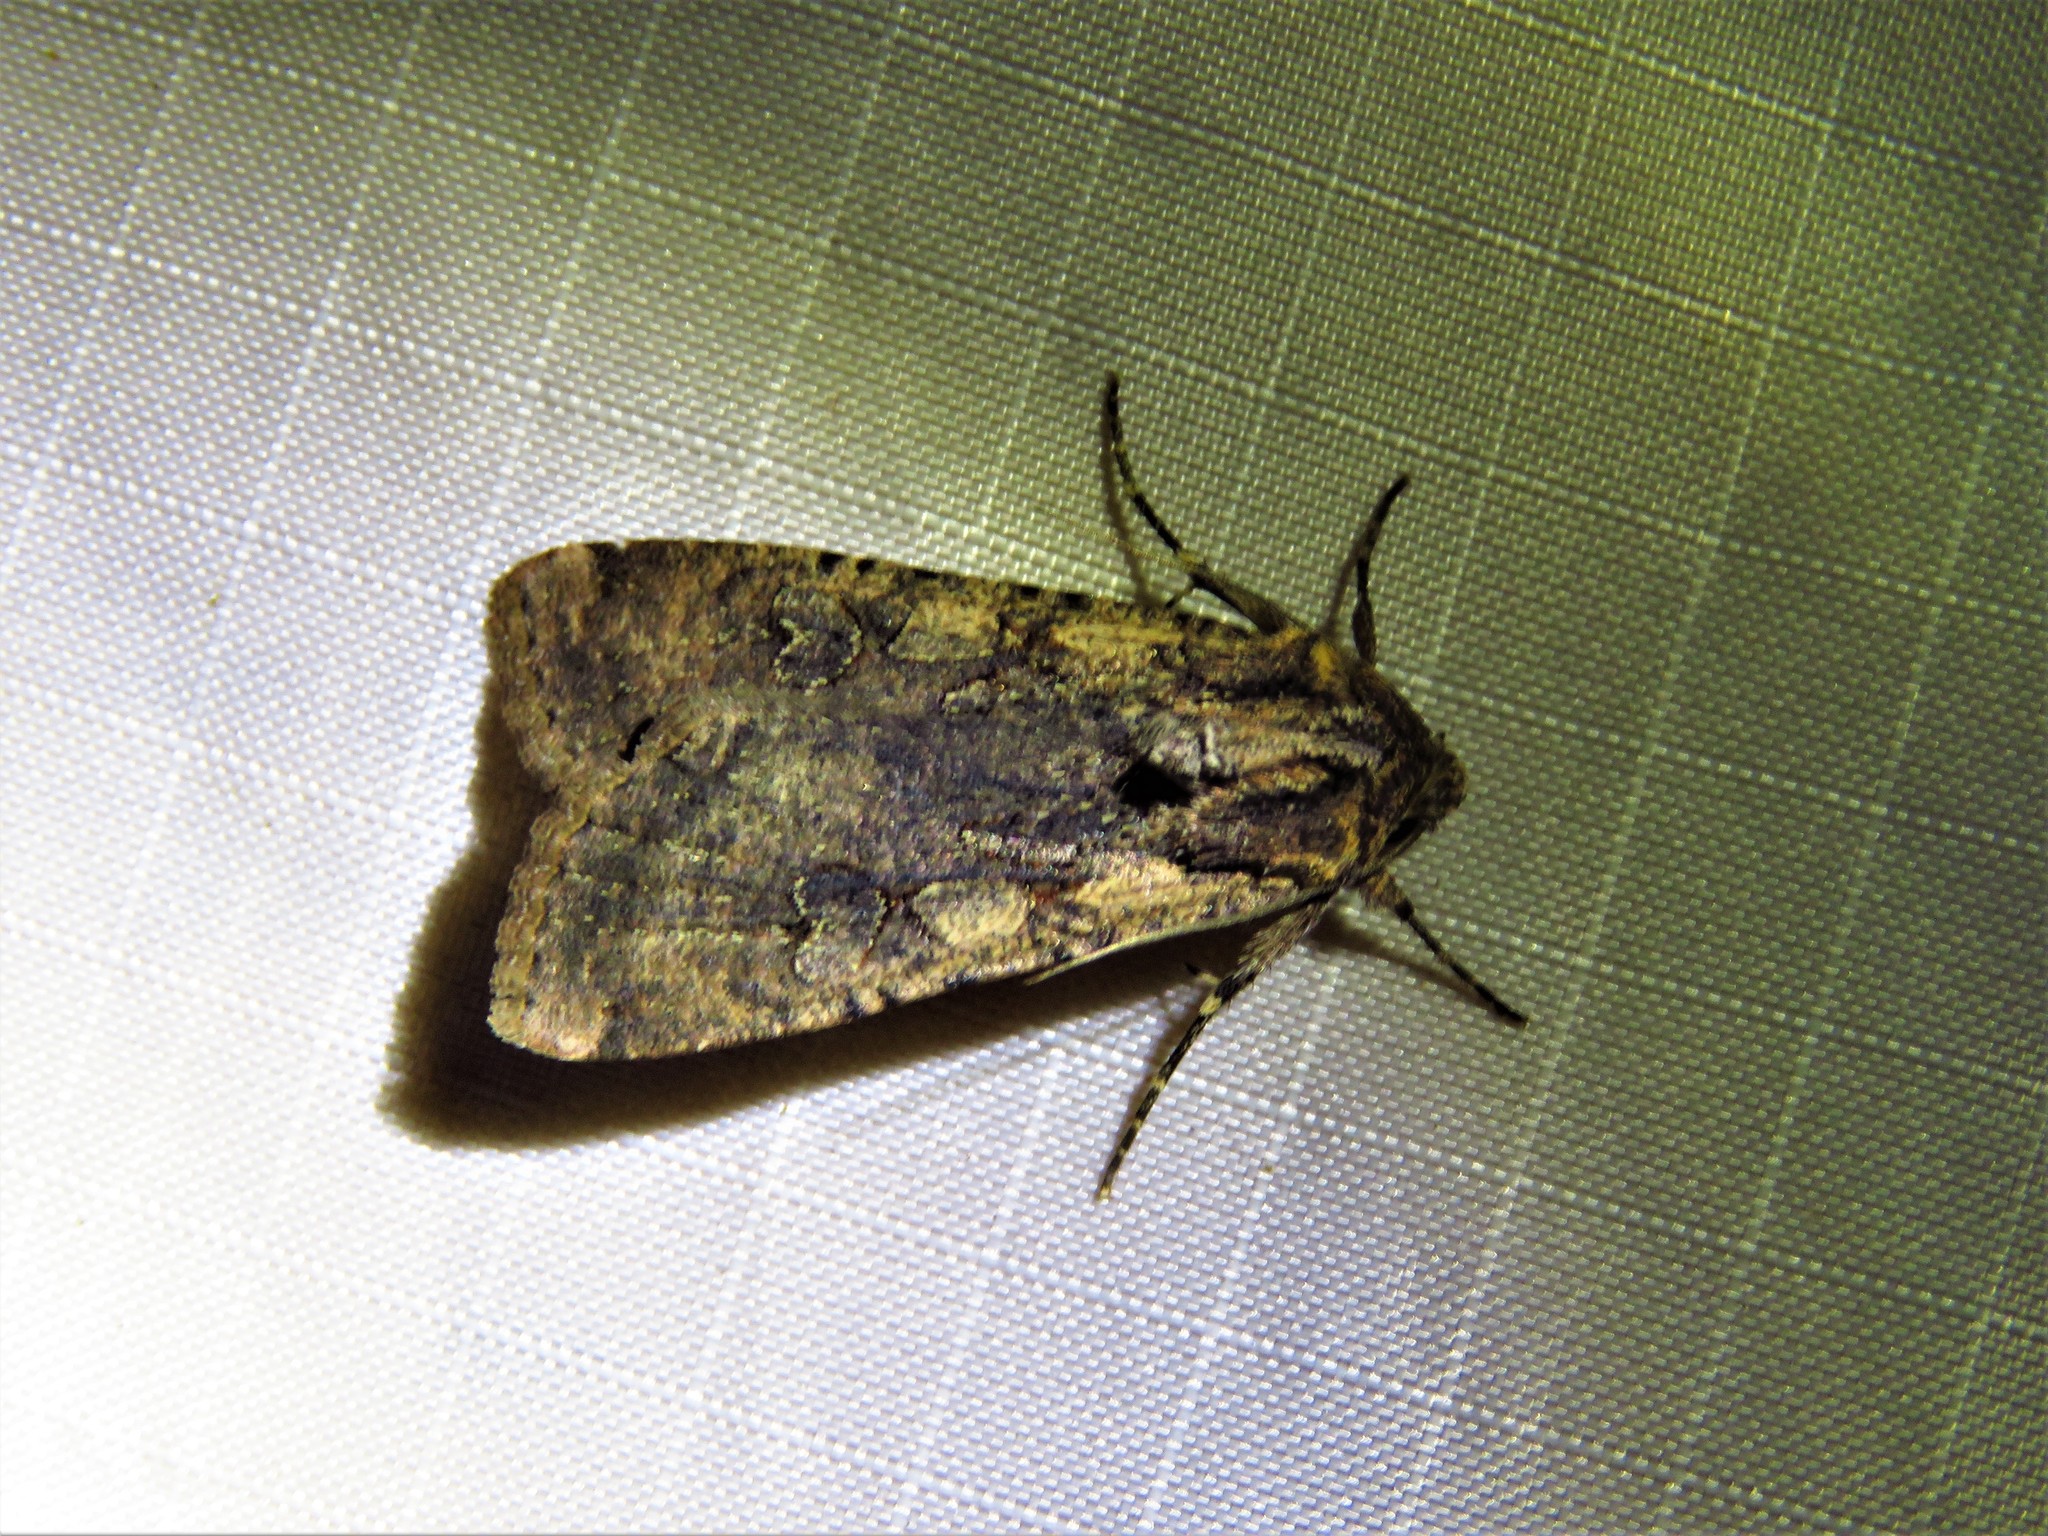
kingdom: Animalia
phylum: Arthropoda
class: Insecta
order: Lepidoptera
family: Noctuidae
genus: Peridroma
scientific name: Peridroma saucia
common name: Pearly underwing
